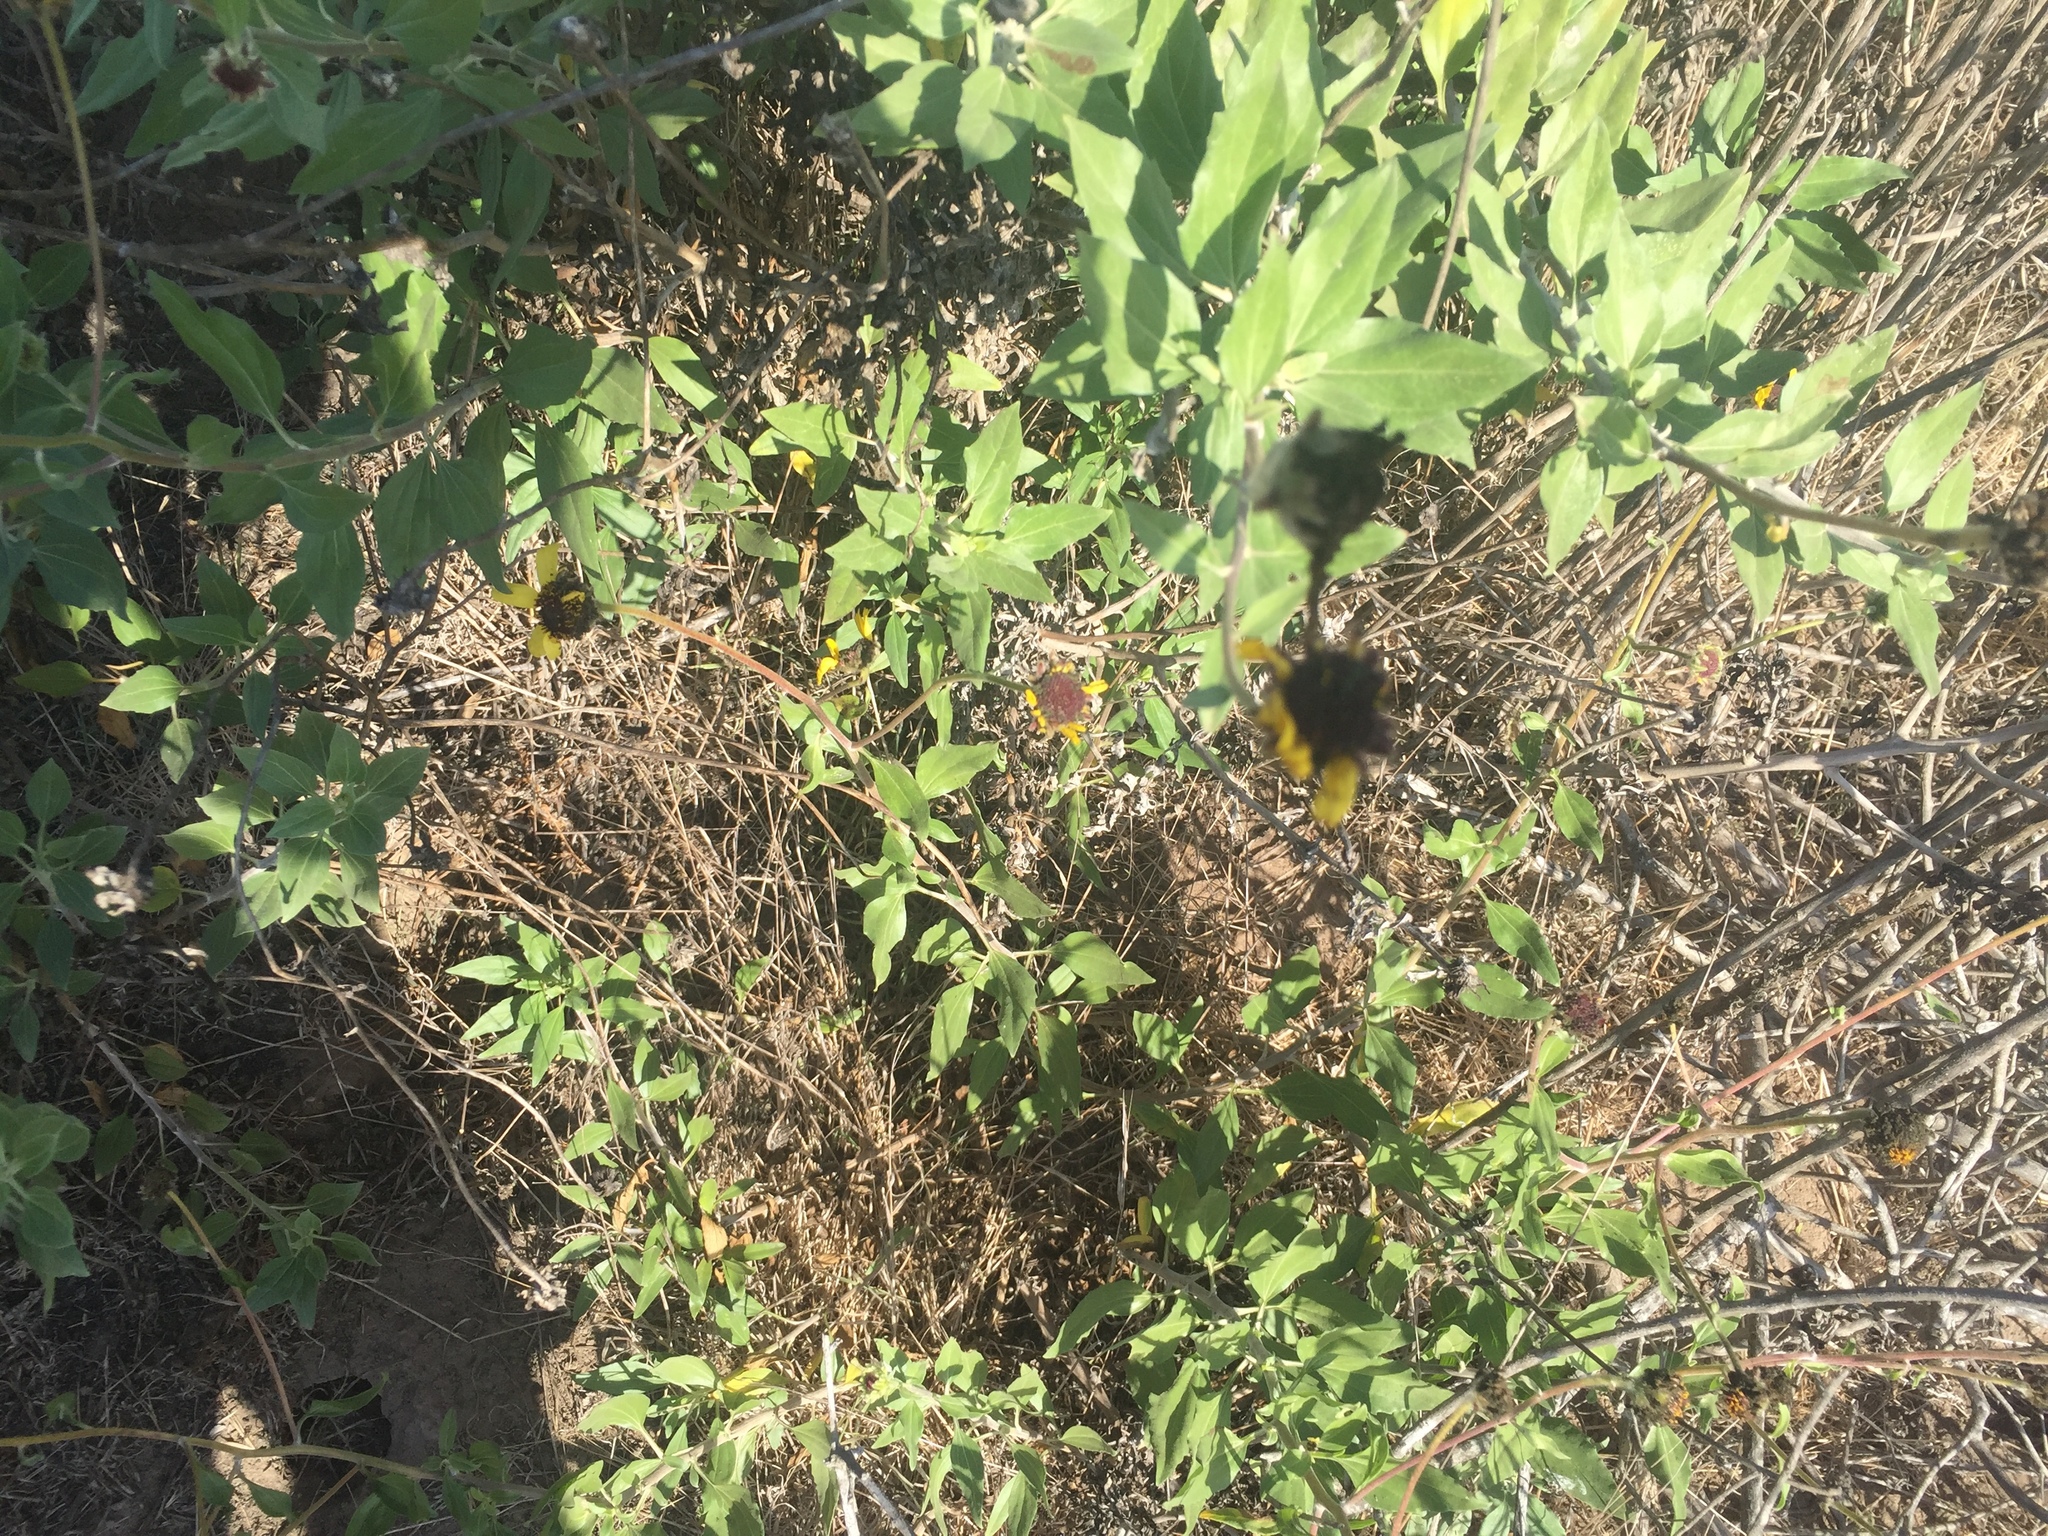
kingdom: Plantae
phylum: Tracheophyta
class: Magnoliopsida
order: Asterales
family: Asteraceae
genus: Encelia
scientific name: Encelia californica
